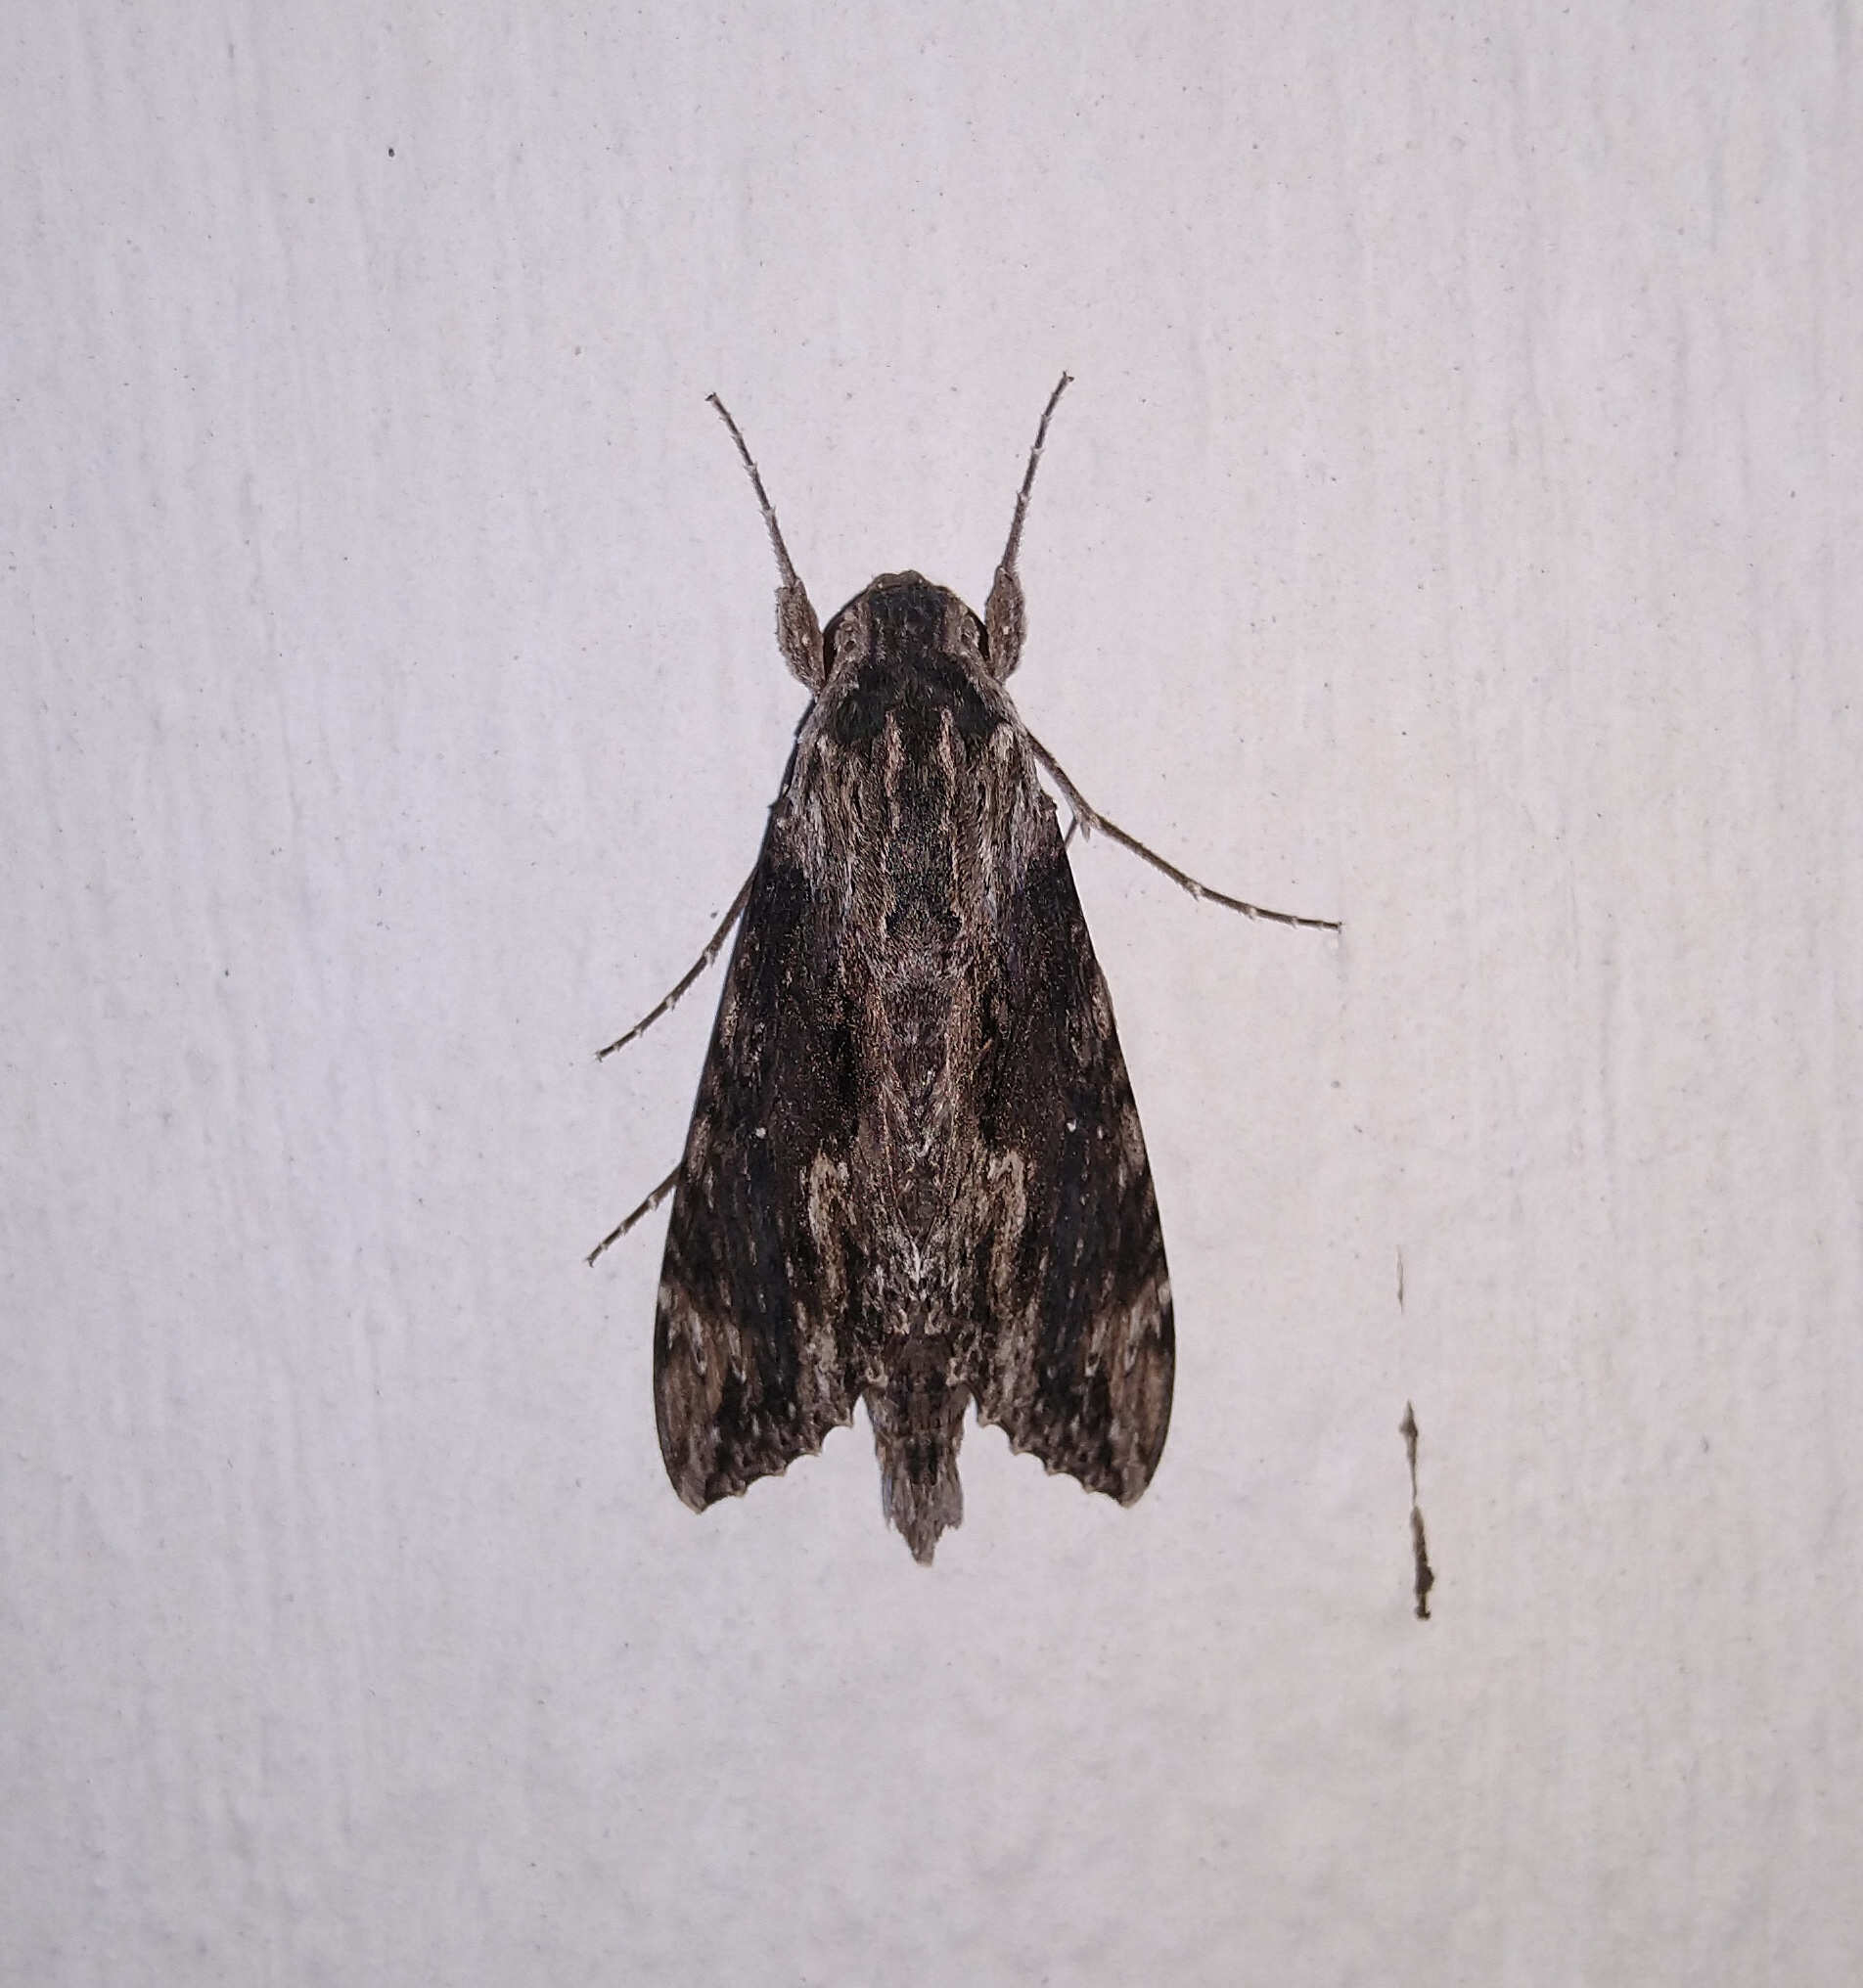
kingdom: Animalia
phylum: Arthropoda
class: Insecta
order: Lepidoptera
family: Sphingidae
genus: Erinnyis
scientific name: Erinnyis crameri
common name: Cramer's sphinx
